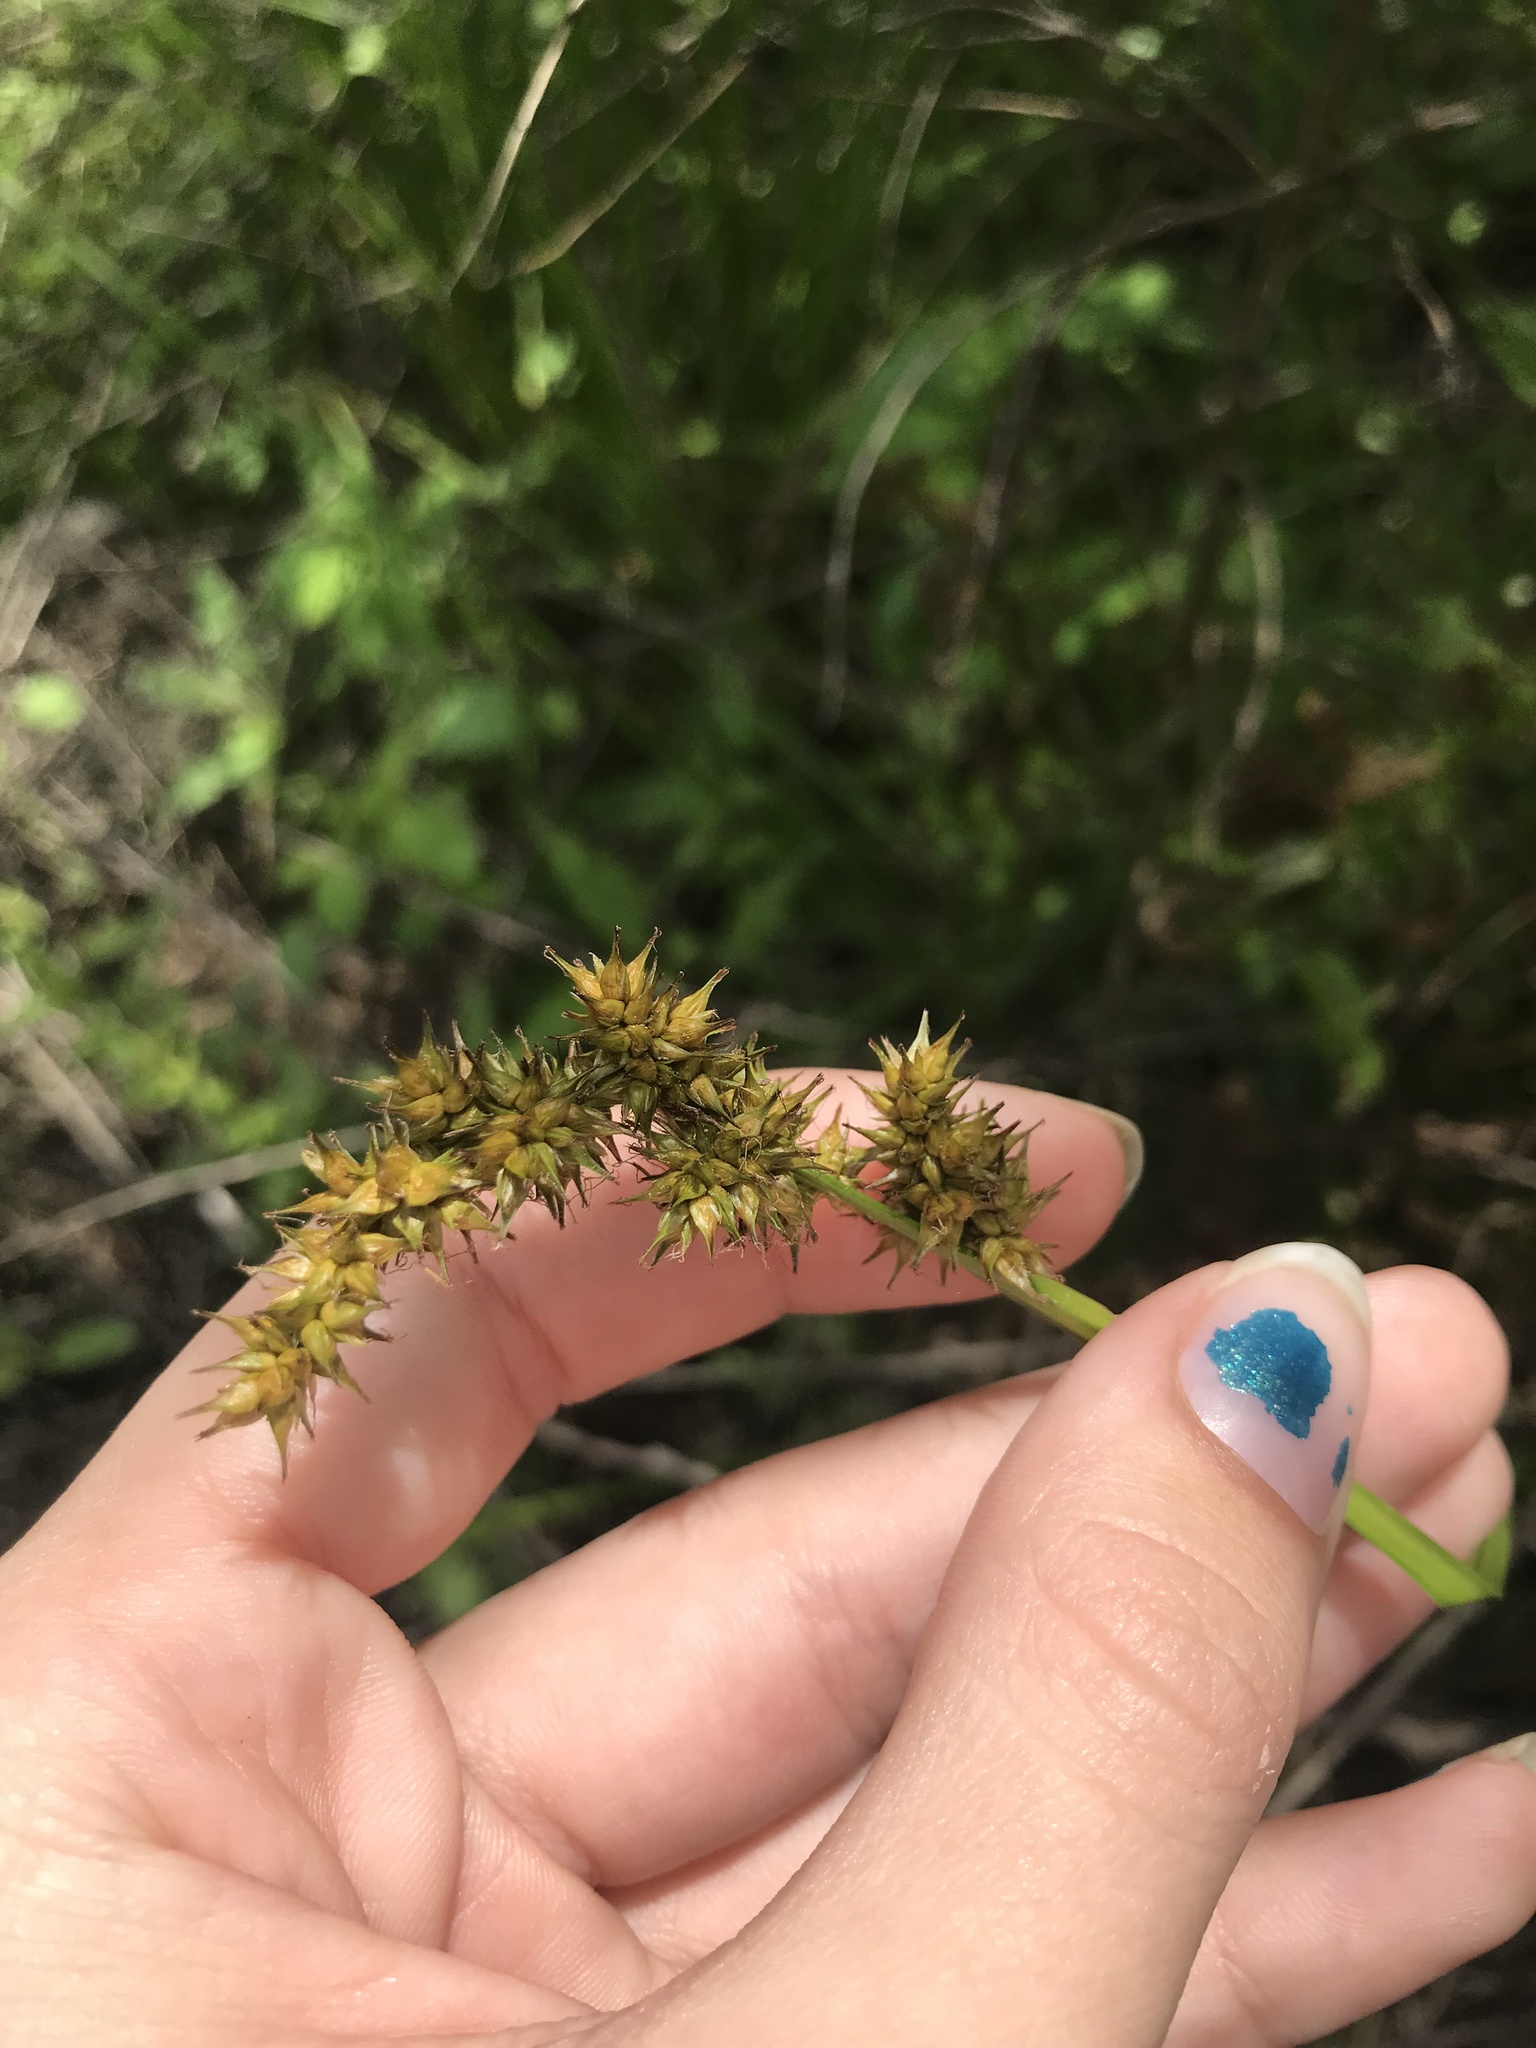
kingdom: Plantae
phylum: Tracheophyta
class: Liliopsida
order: Poales
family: Cyperaceae
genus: Carex
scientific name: Carex stipata
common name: Awl-fruited sedge
